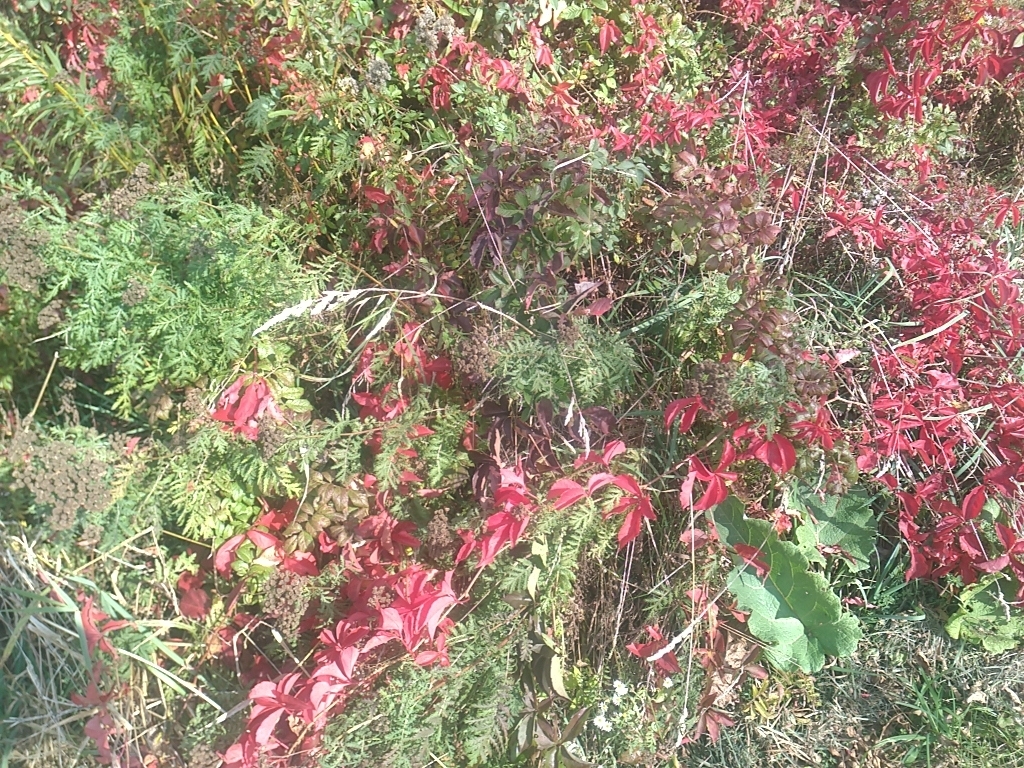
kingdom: Plantae
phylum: Tracheophyta
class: Magnoliopsida
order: Asterales
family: Asteraceae
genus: Tanacetum
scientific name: Tanacetum vulgare
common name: Common tansy
